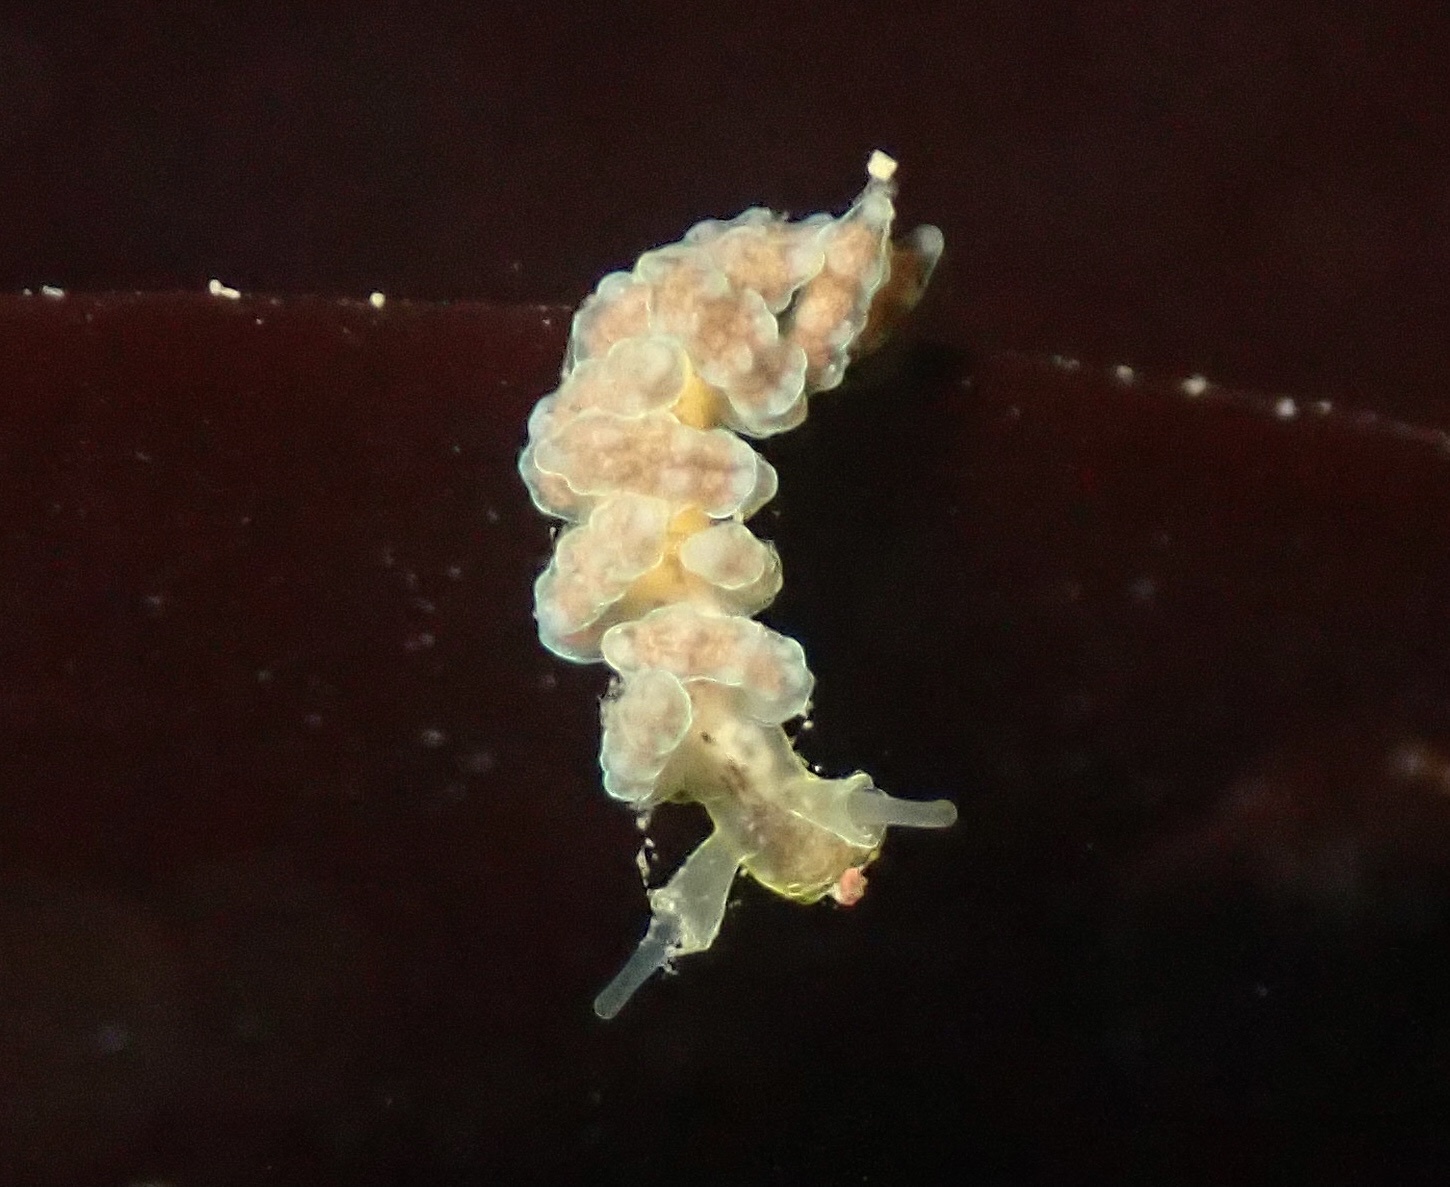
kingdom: Animalia
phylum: Mollusca
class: Gastropoda
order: Nudibranchia
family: Dotidae
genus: Doto
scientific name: Doto columbiana
